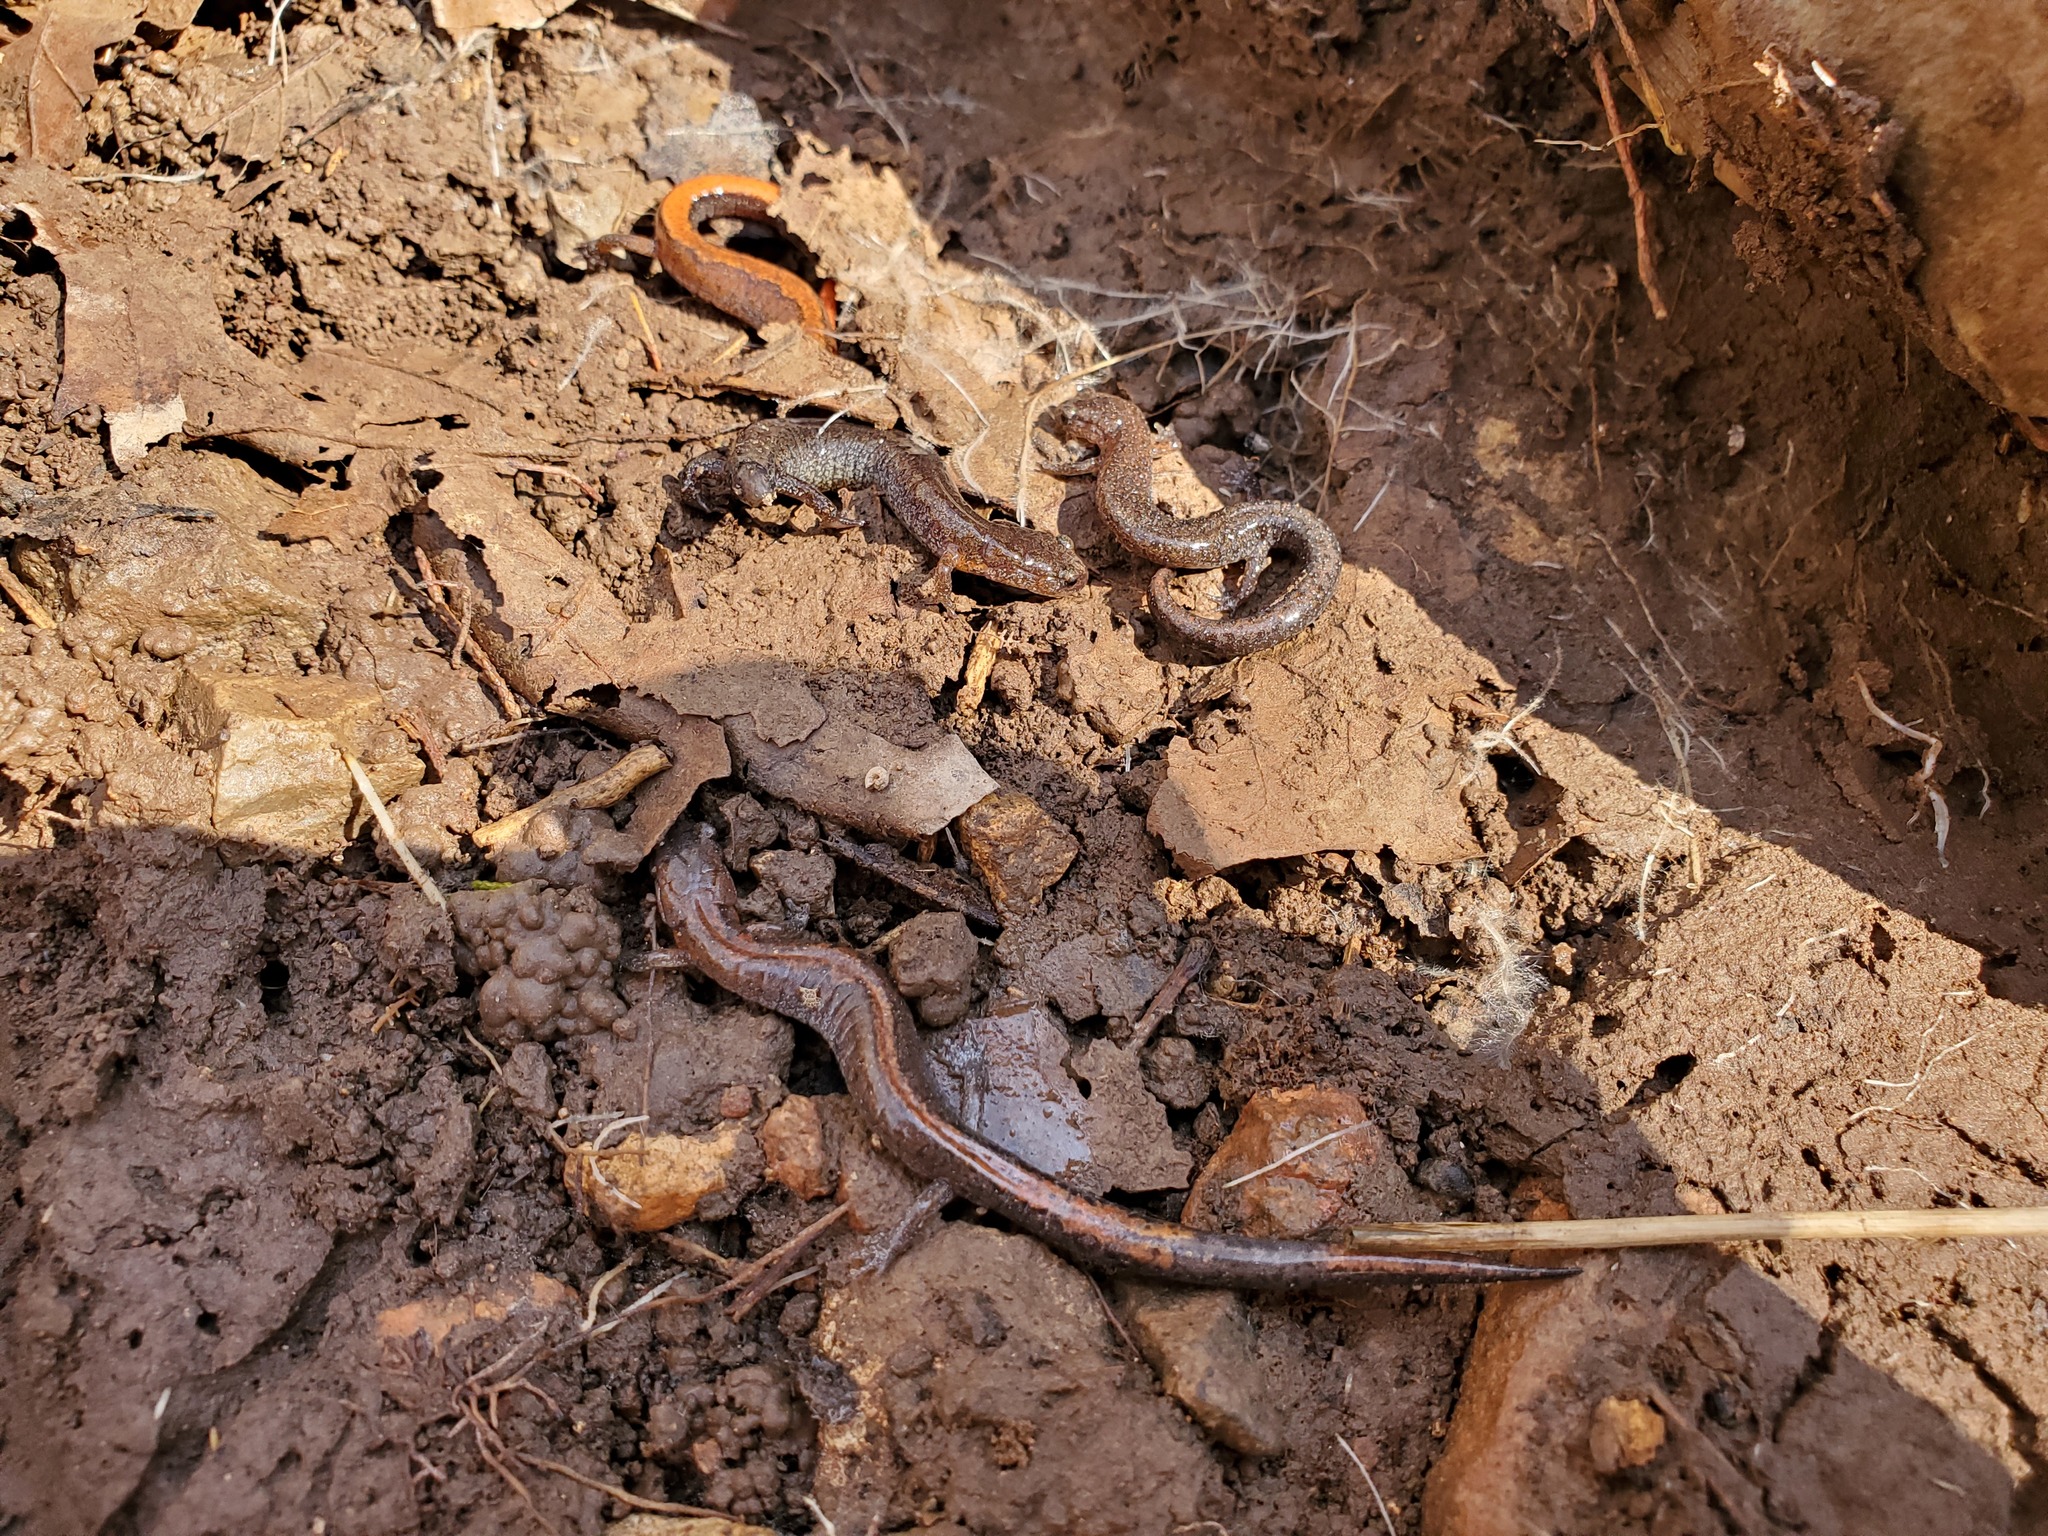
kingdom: Animalia
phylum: Chordata
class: Amphibia
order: Caudata
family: Plethodontidae
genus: Plethodon
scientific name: Plethodon dorsalis
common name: Northern zigzag salamander
